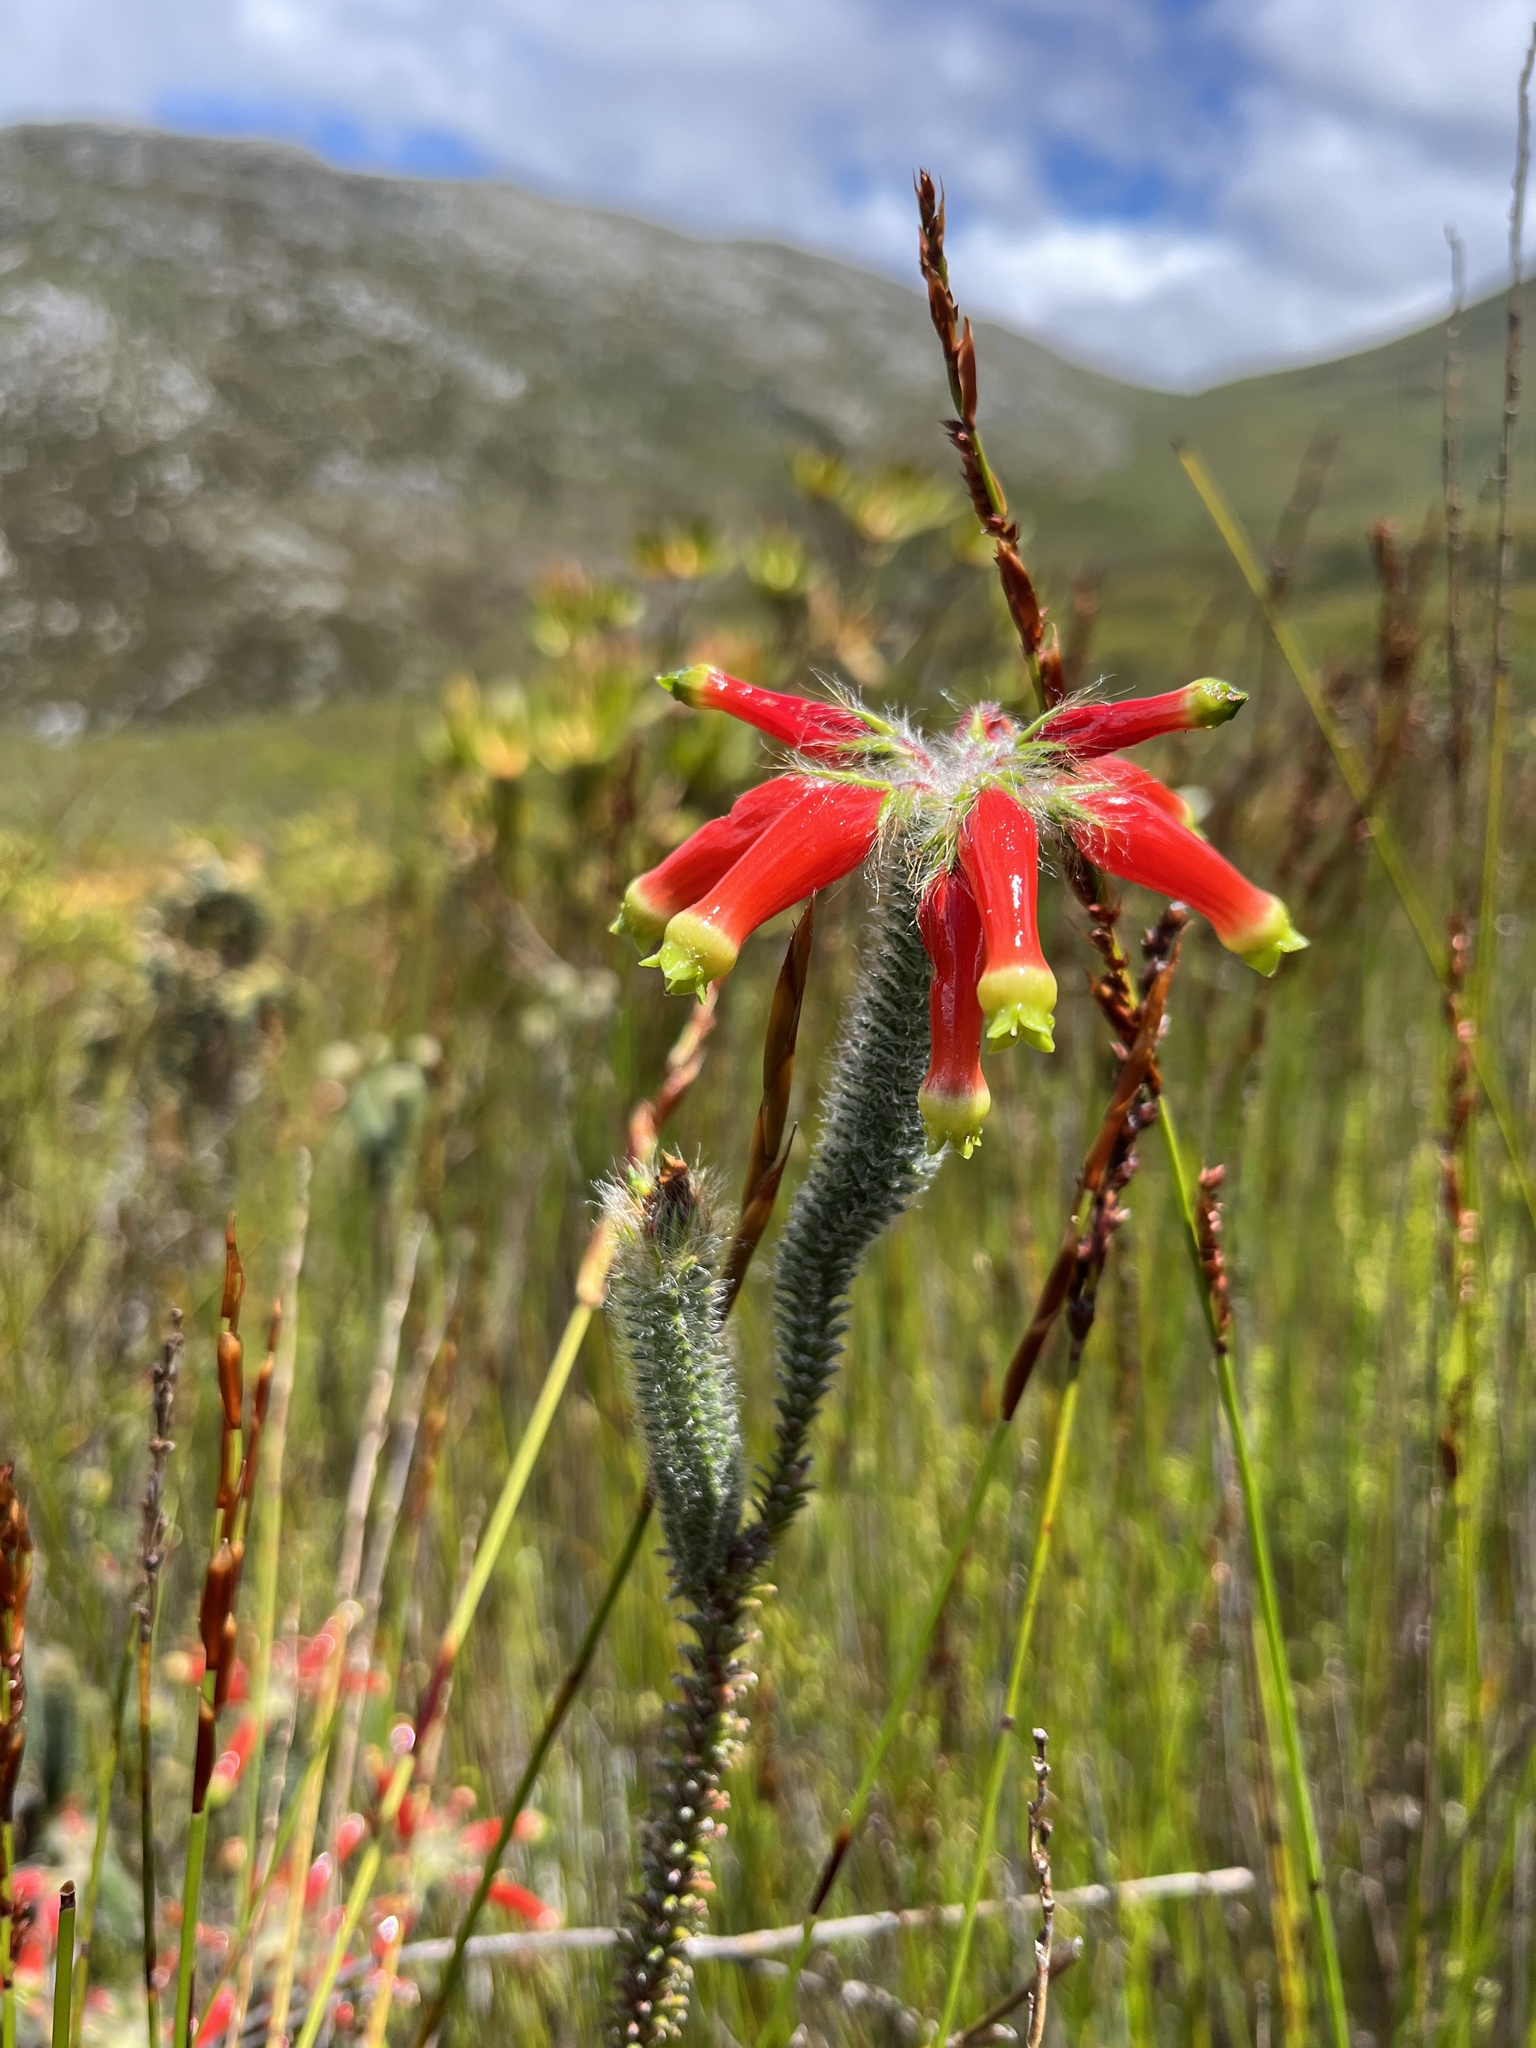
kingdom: Plantae
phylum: Tracheophyta
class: Magnoliopsida
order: Ericales
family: Ericaceae
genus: Erica
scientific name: Erica massonii
